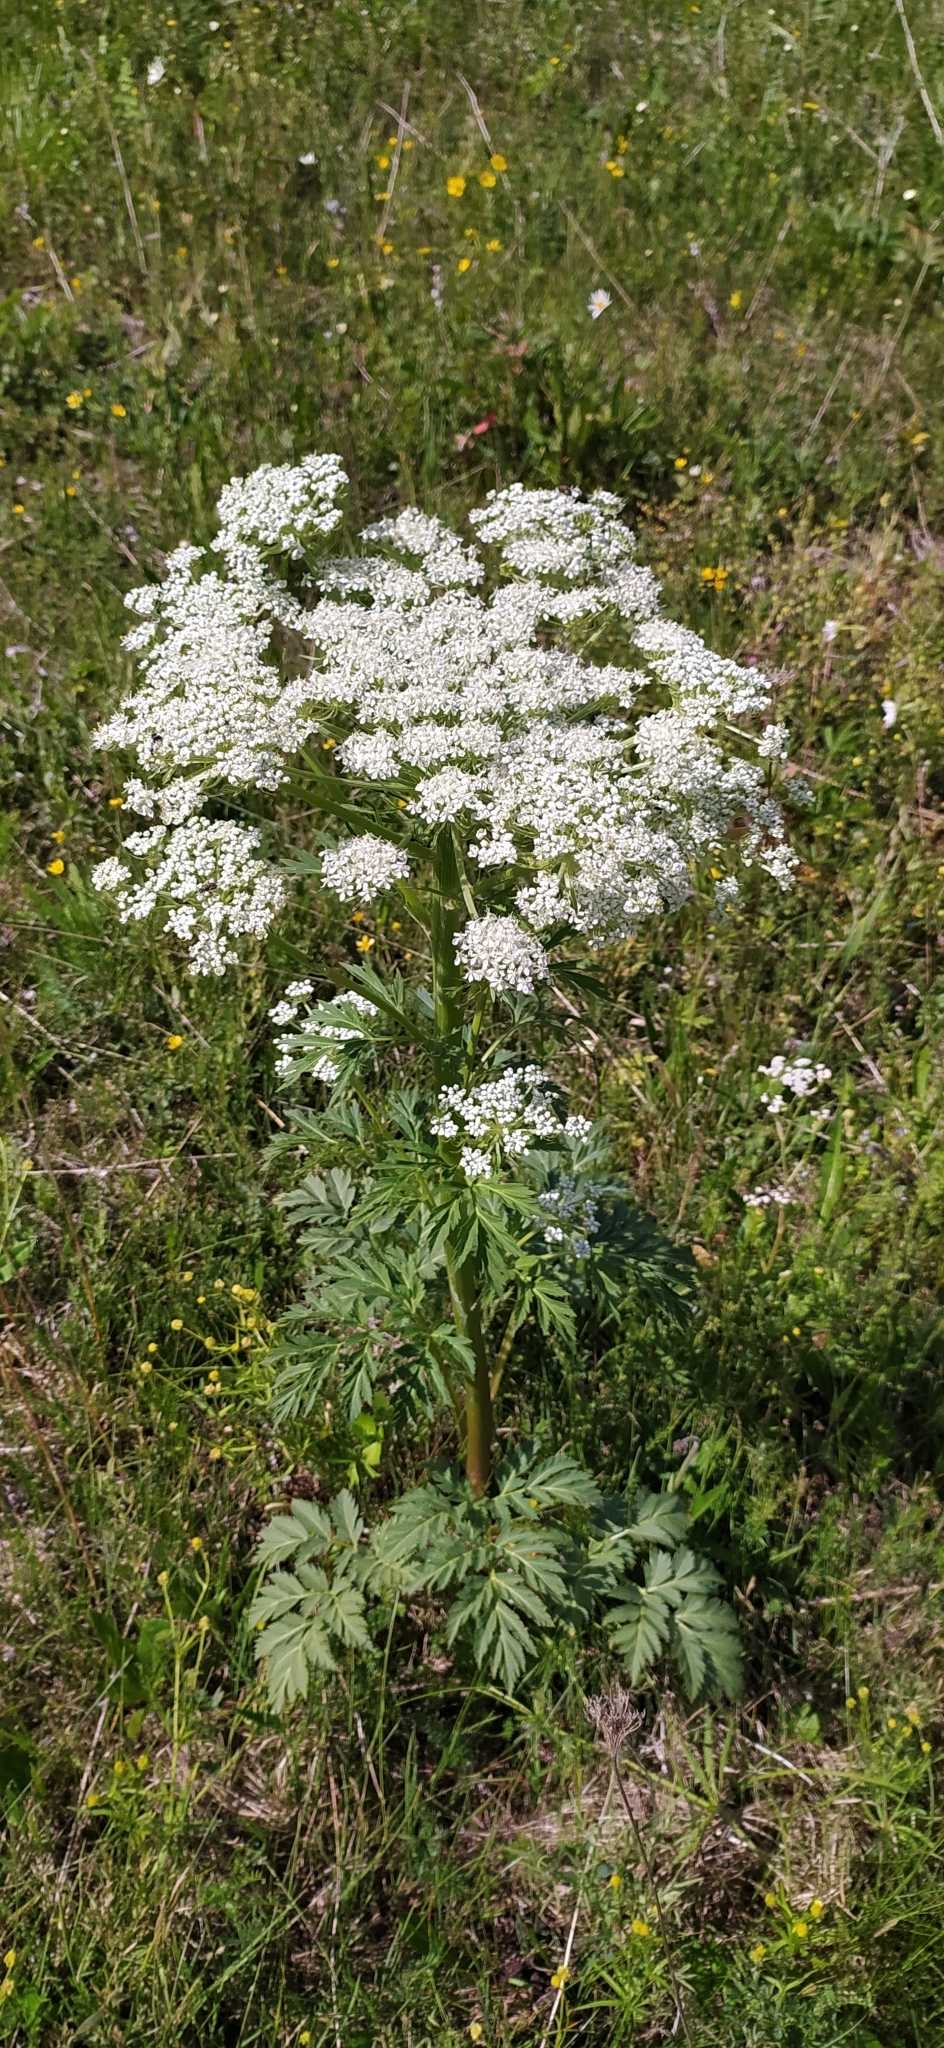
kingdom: Plantae
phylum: Tracheophyta
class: Magnoliopsida
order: Apiales
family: Apiaceae
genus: Pleurospermum
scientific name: Pleurospermum uralense
